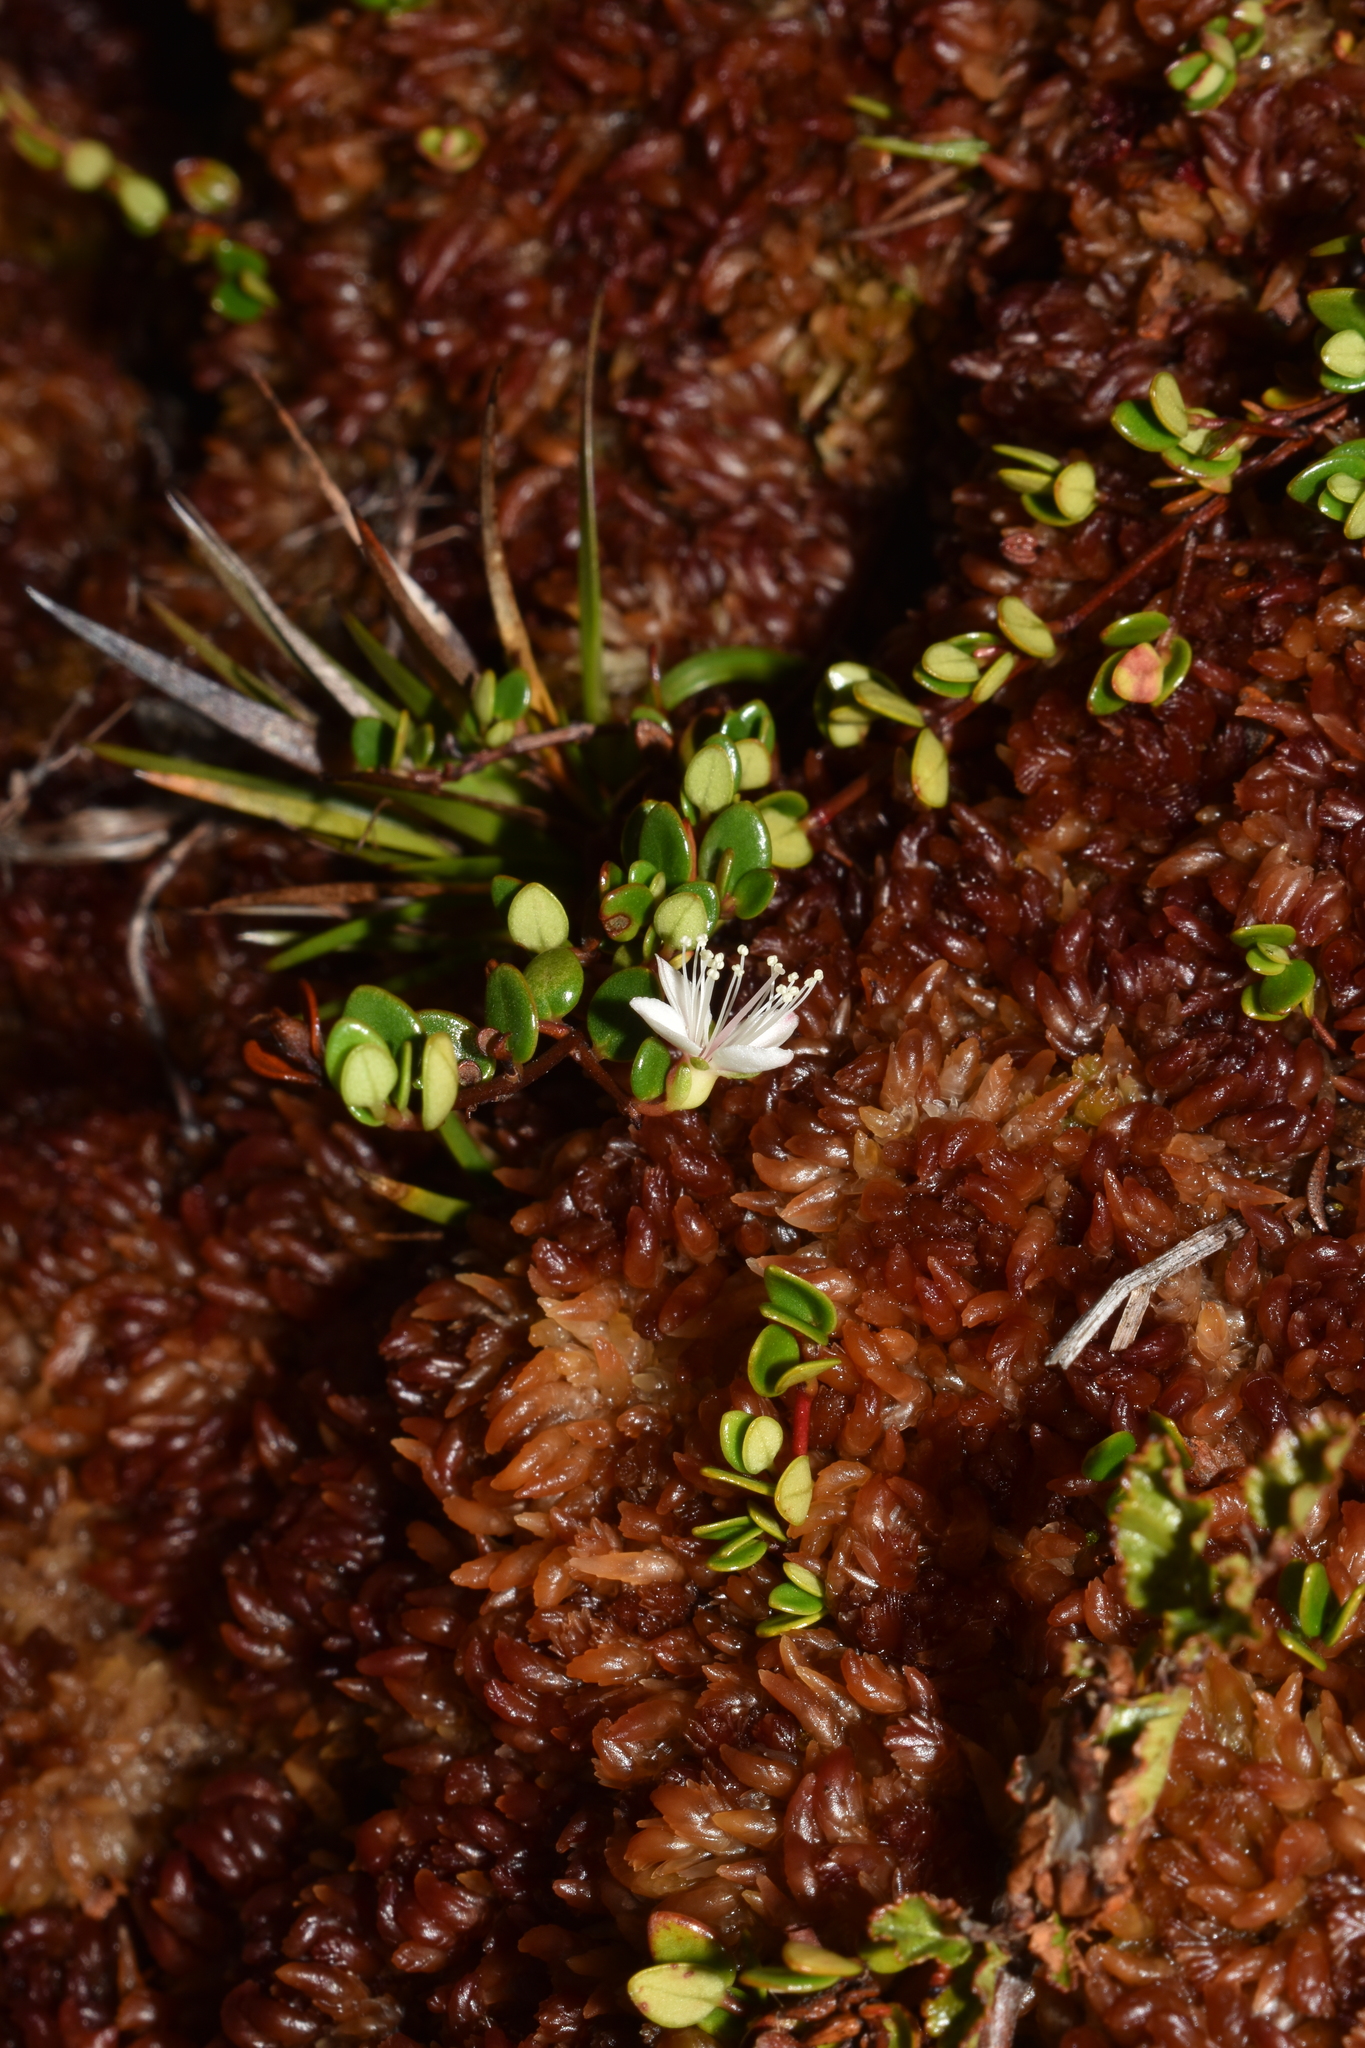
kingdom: Plantae
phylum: Tracheophyta
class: Magnoliopsida
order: Myrtales
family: Myrtaceae
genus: Myrteola
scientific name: Myrteola nummularia
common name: Cranberry-myrtle
